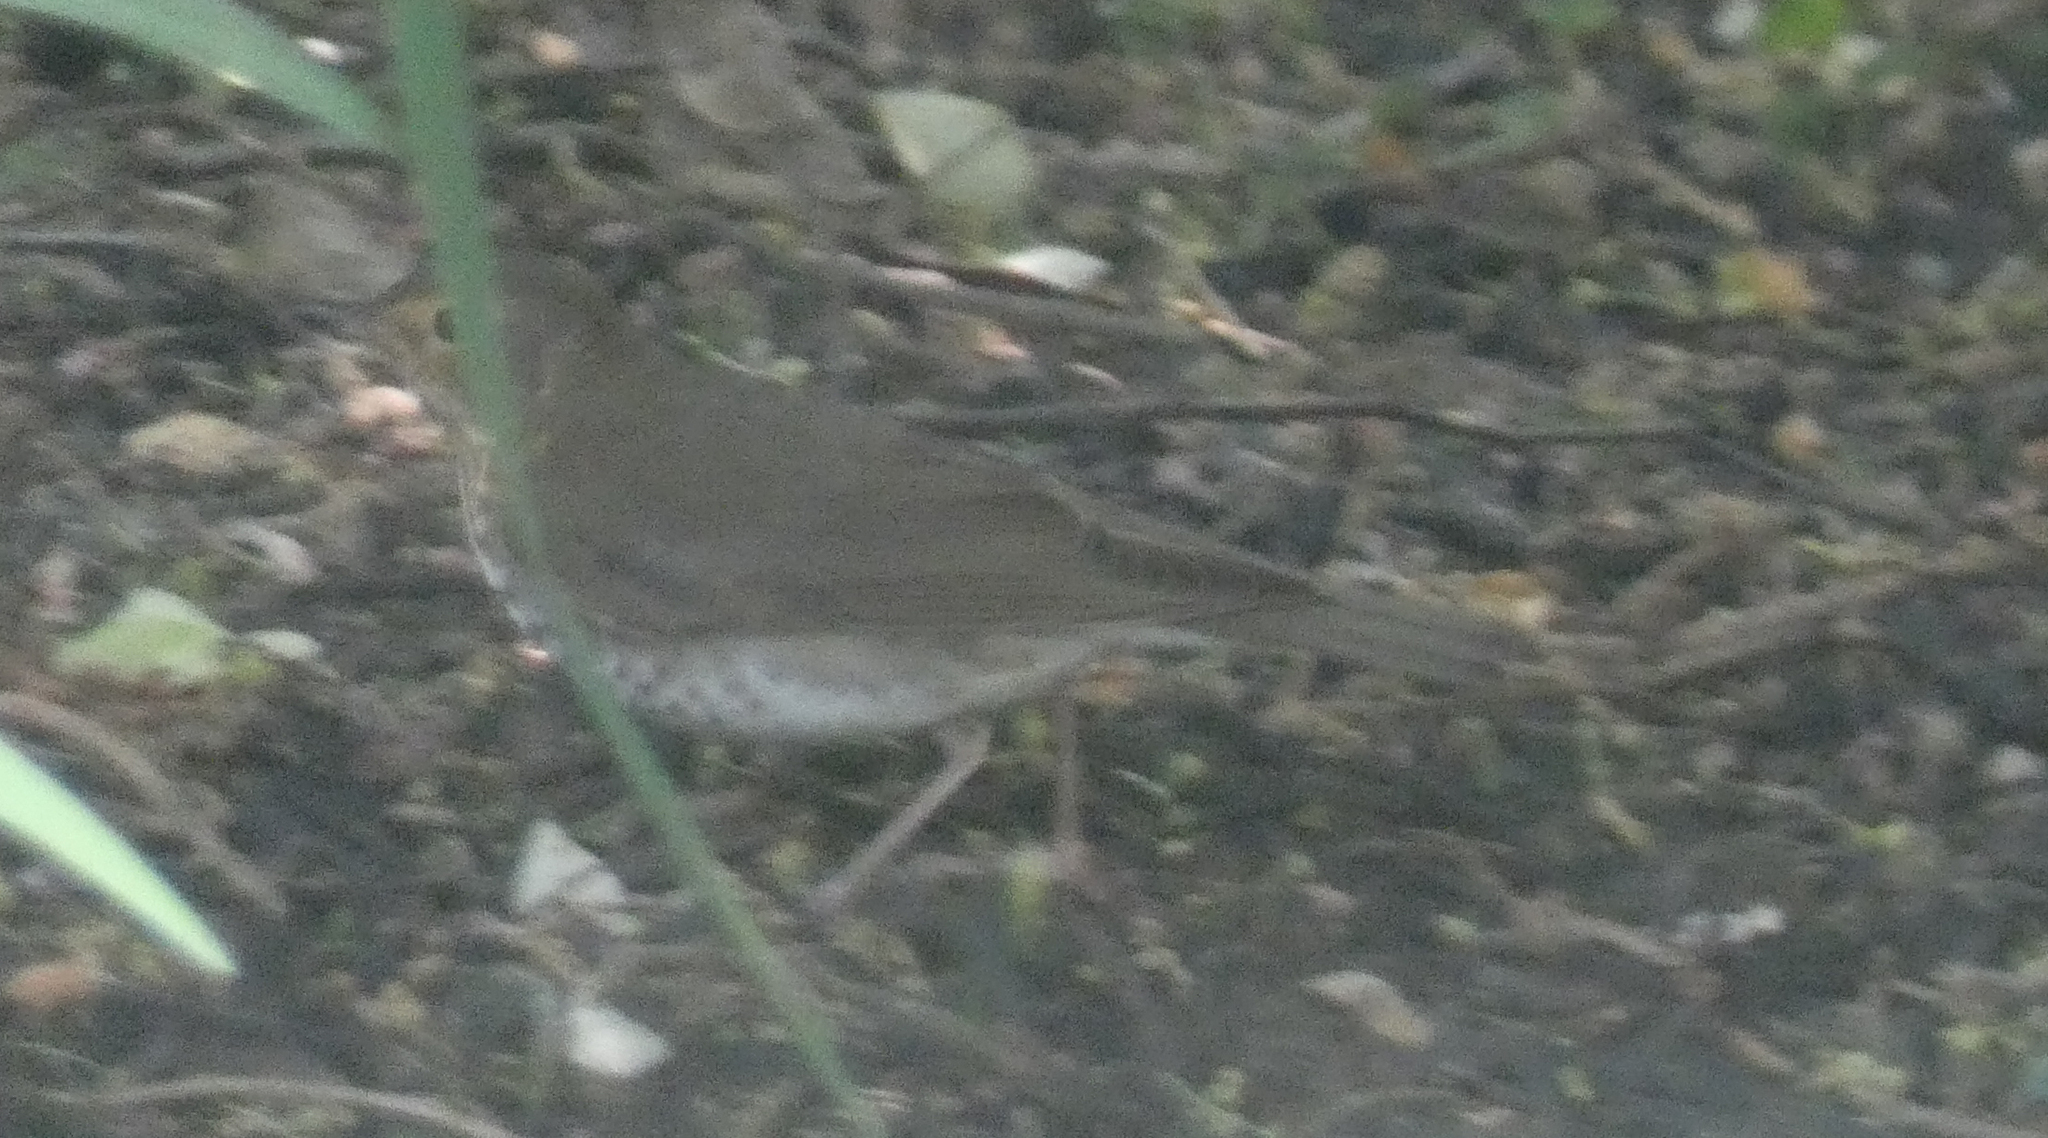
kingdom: Animalia
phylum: Chordata
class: Aves
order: Passeriformes
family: Turdidae
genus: Catharus
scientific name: Catharus ustulatus
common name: Swainson's thrush
